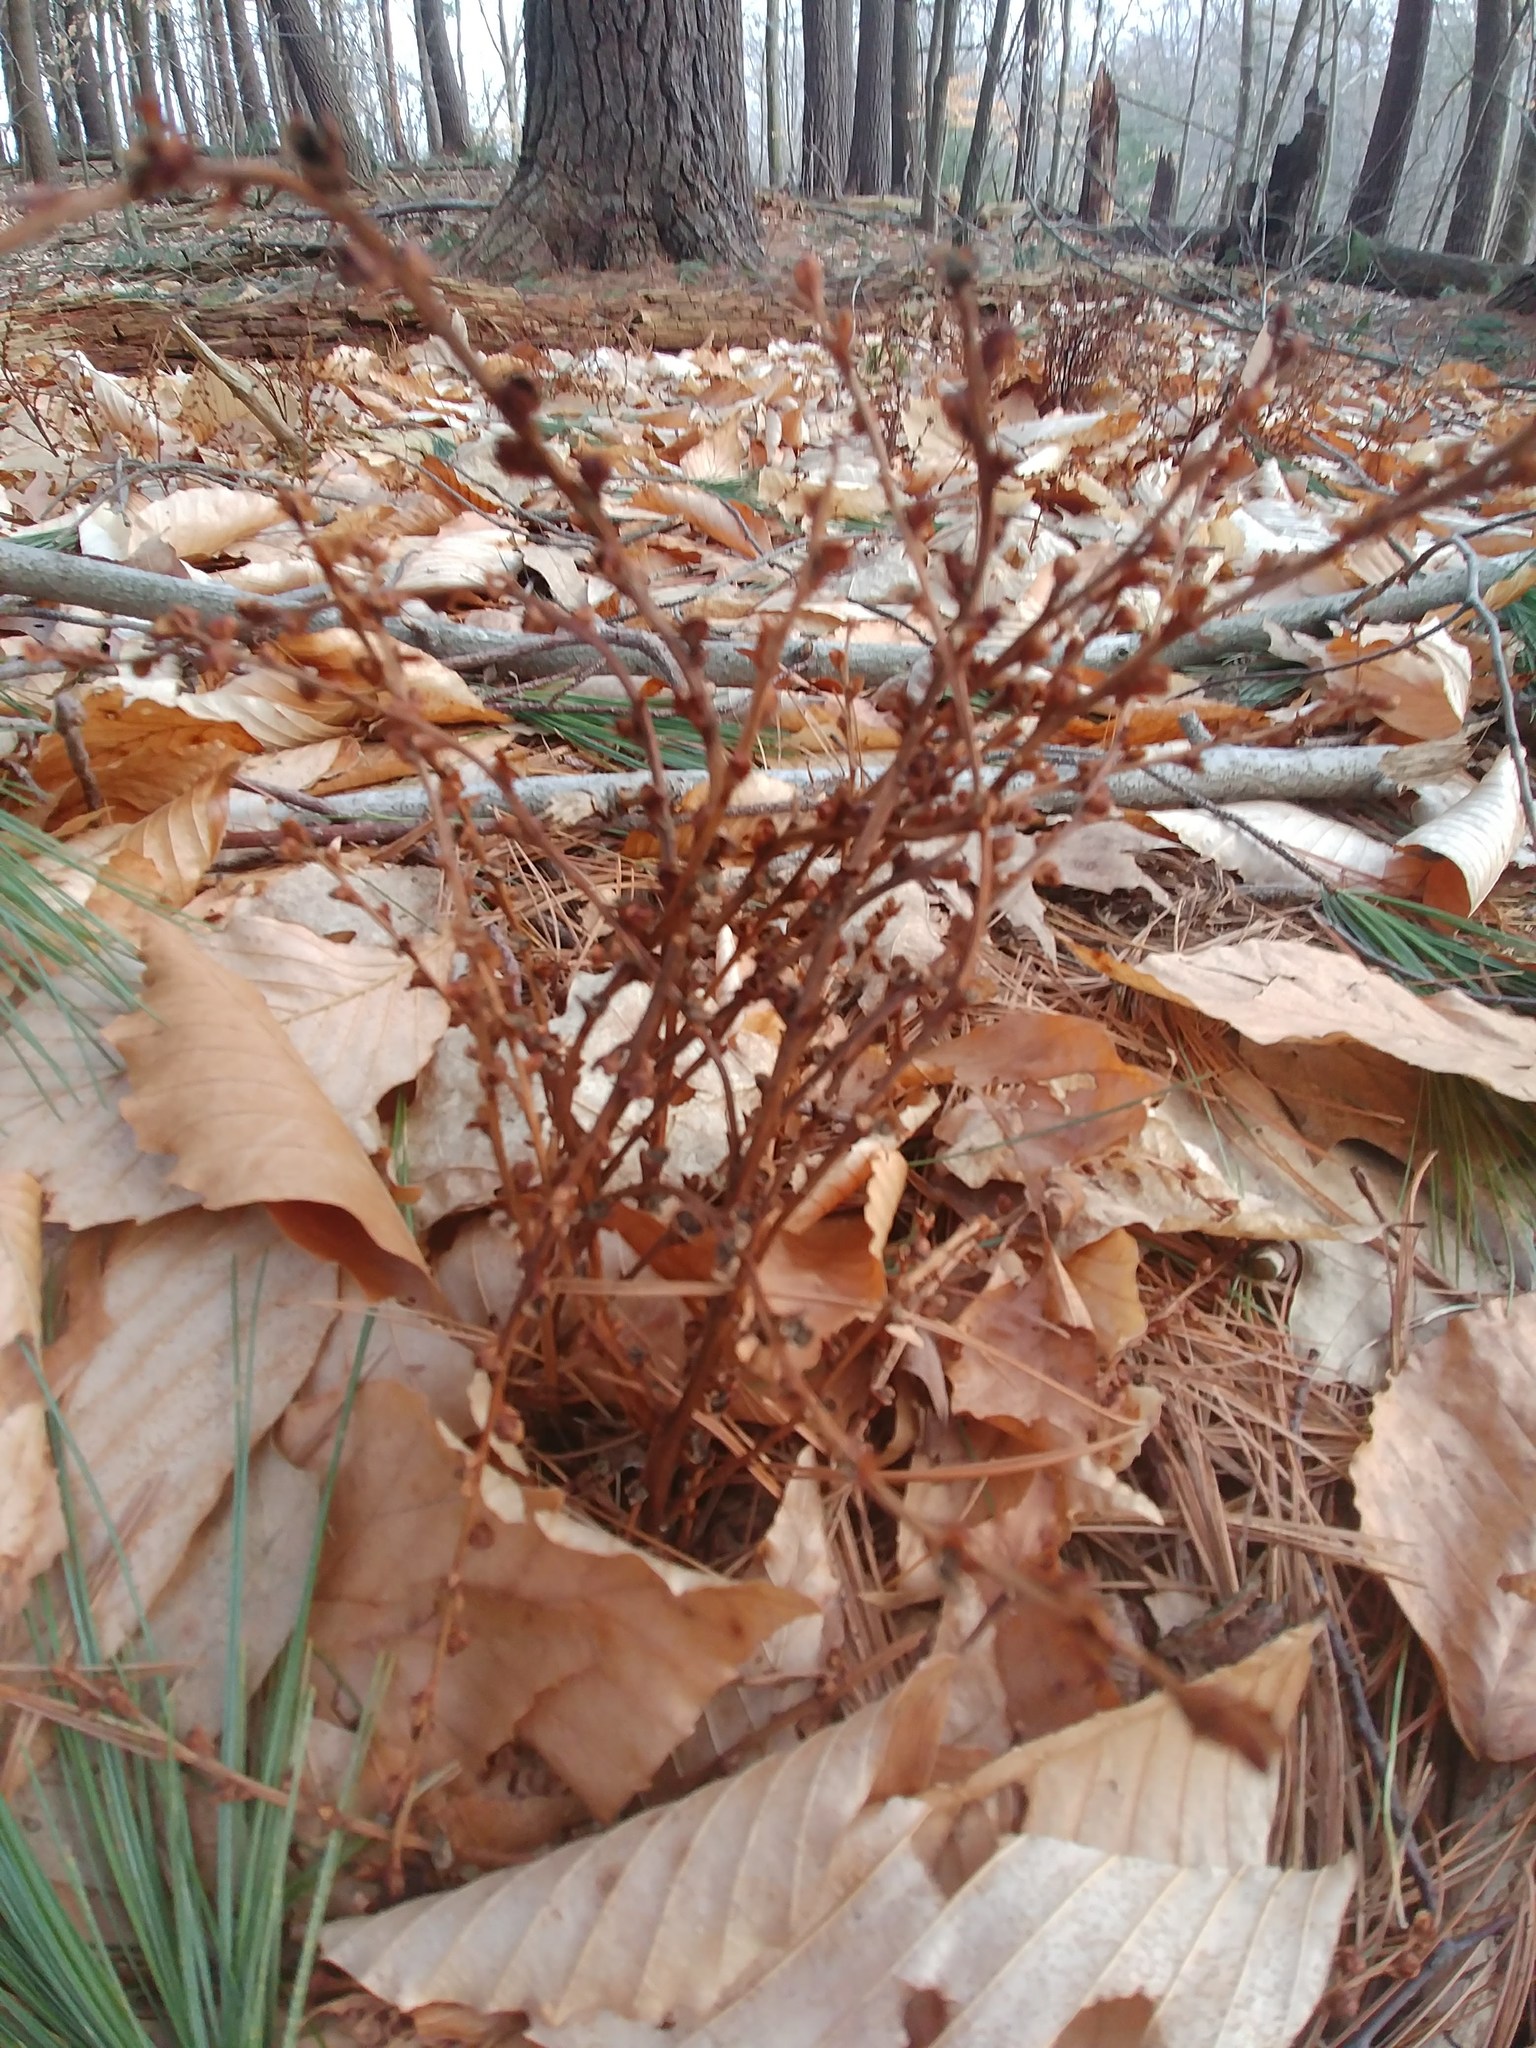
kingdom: Plantae
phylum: Tracheophyta
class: Magnoliopsida
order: Lamiales
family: Orobanchaceae
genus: Epifagus
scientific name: Epifagus virginiana
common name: Beechdrops
